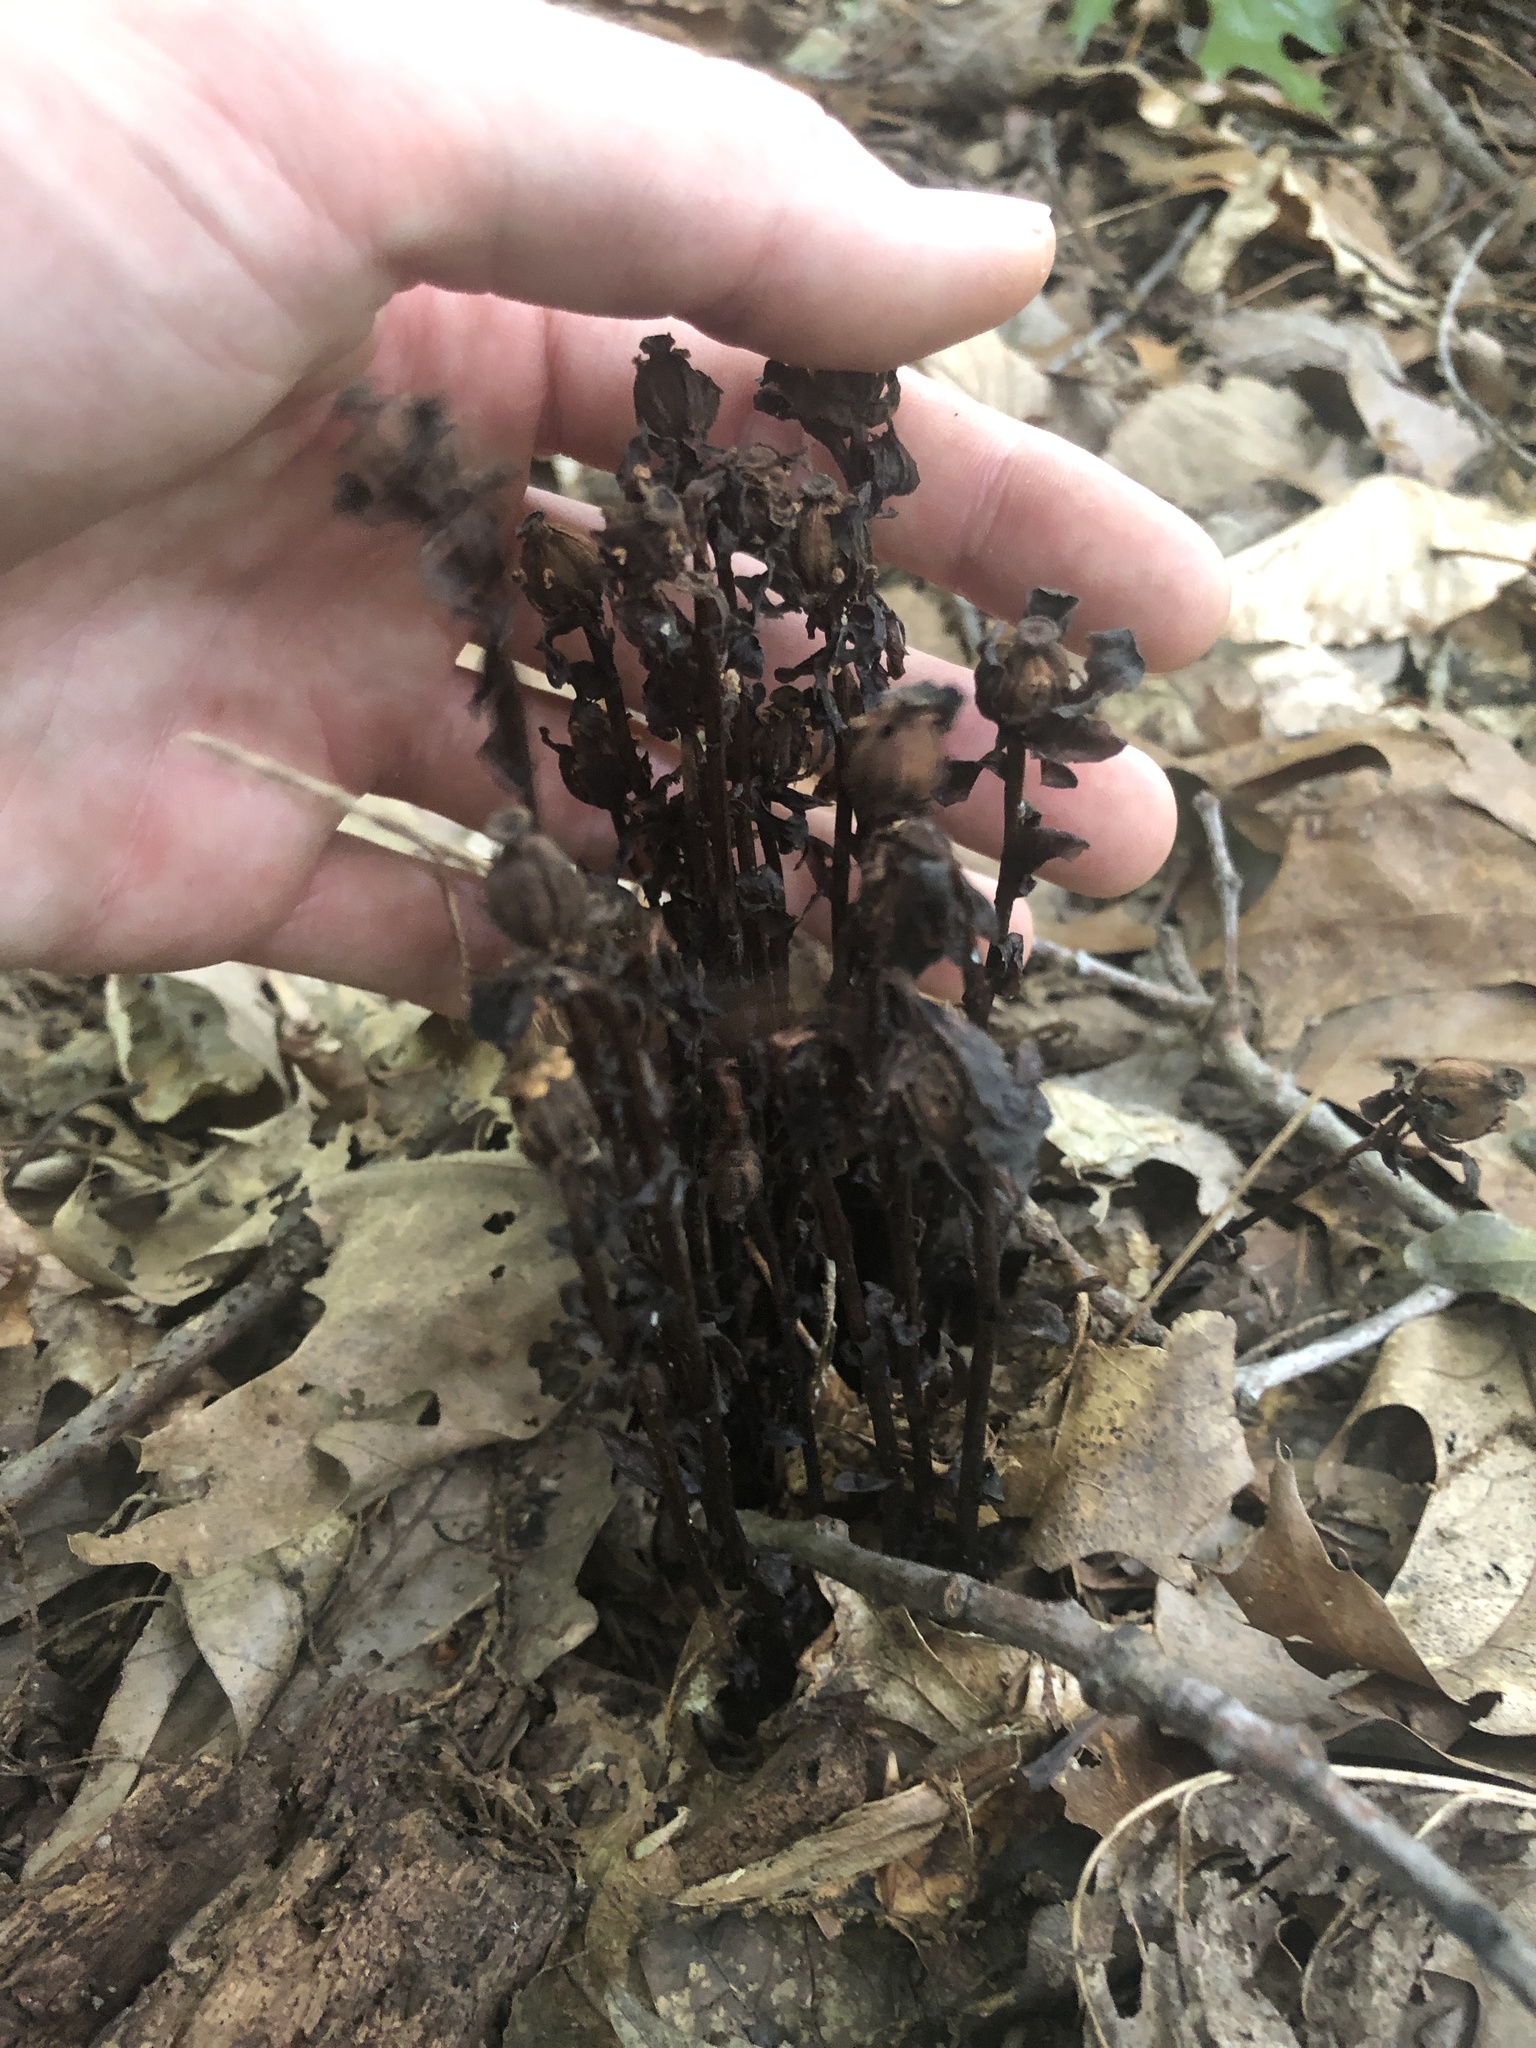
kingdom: Plantae
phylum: Tracheophyta
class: Magnoliopsida
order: Ericales
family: Ericaceae
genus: Monotropa
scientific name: Monotropa uniflora
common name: Convulsion root
